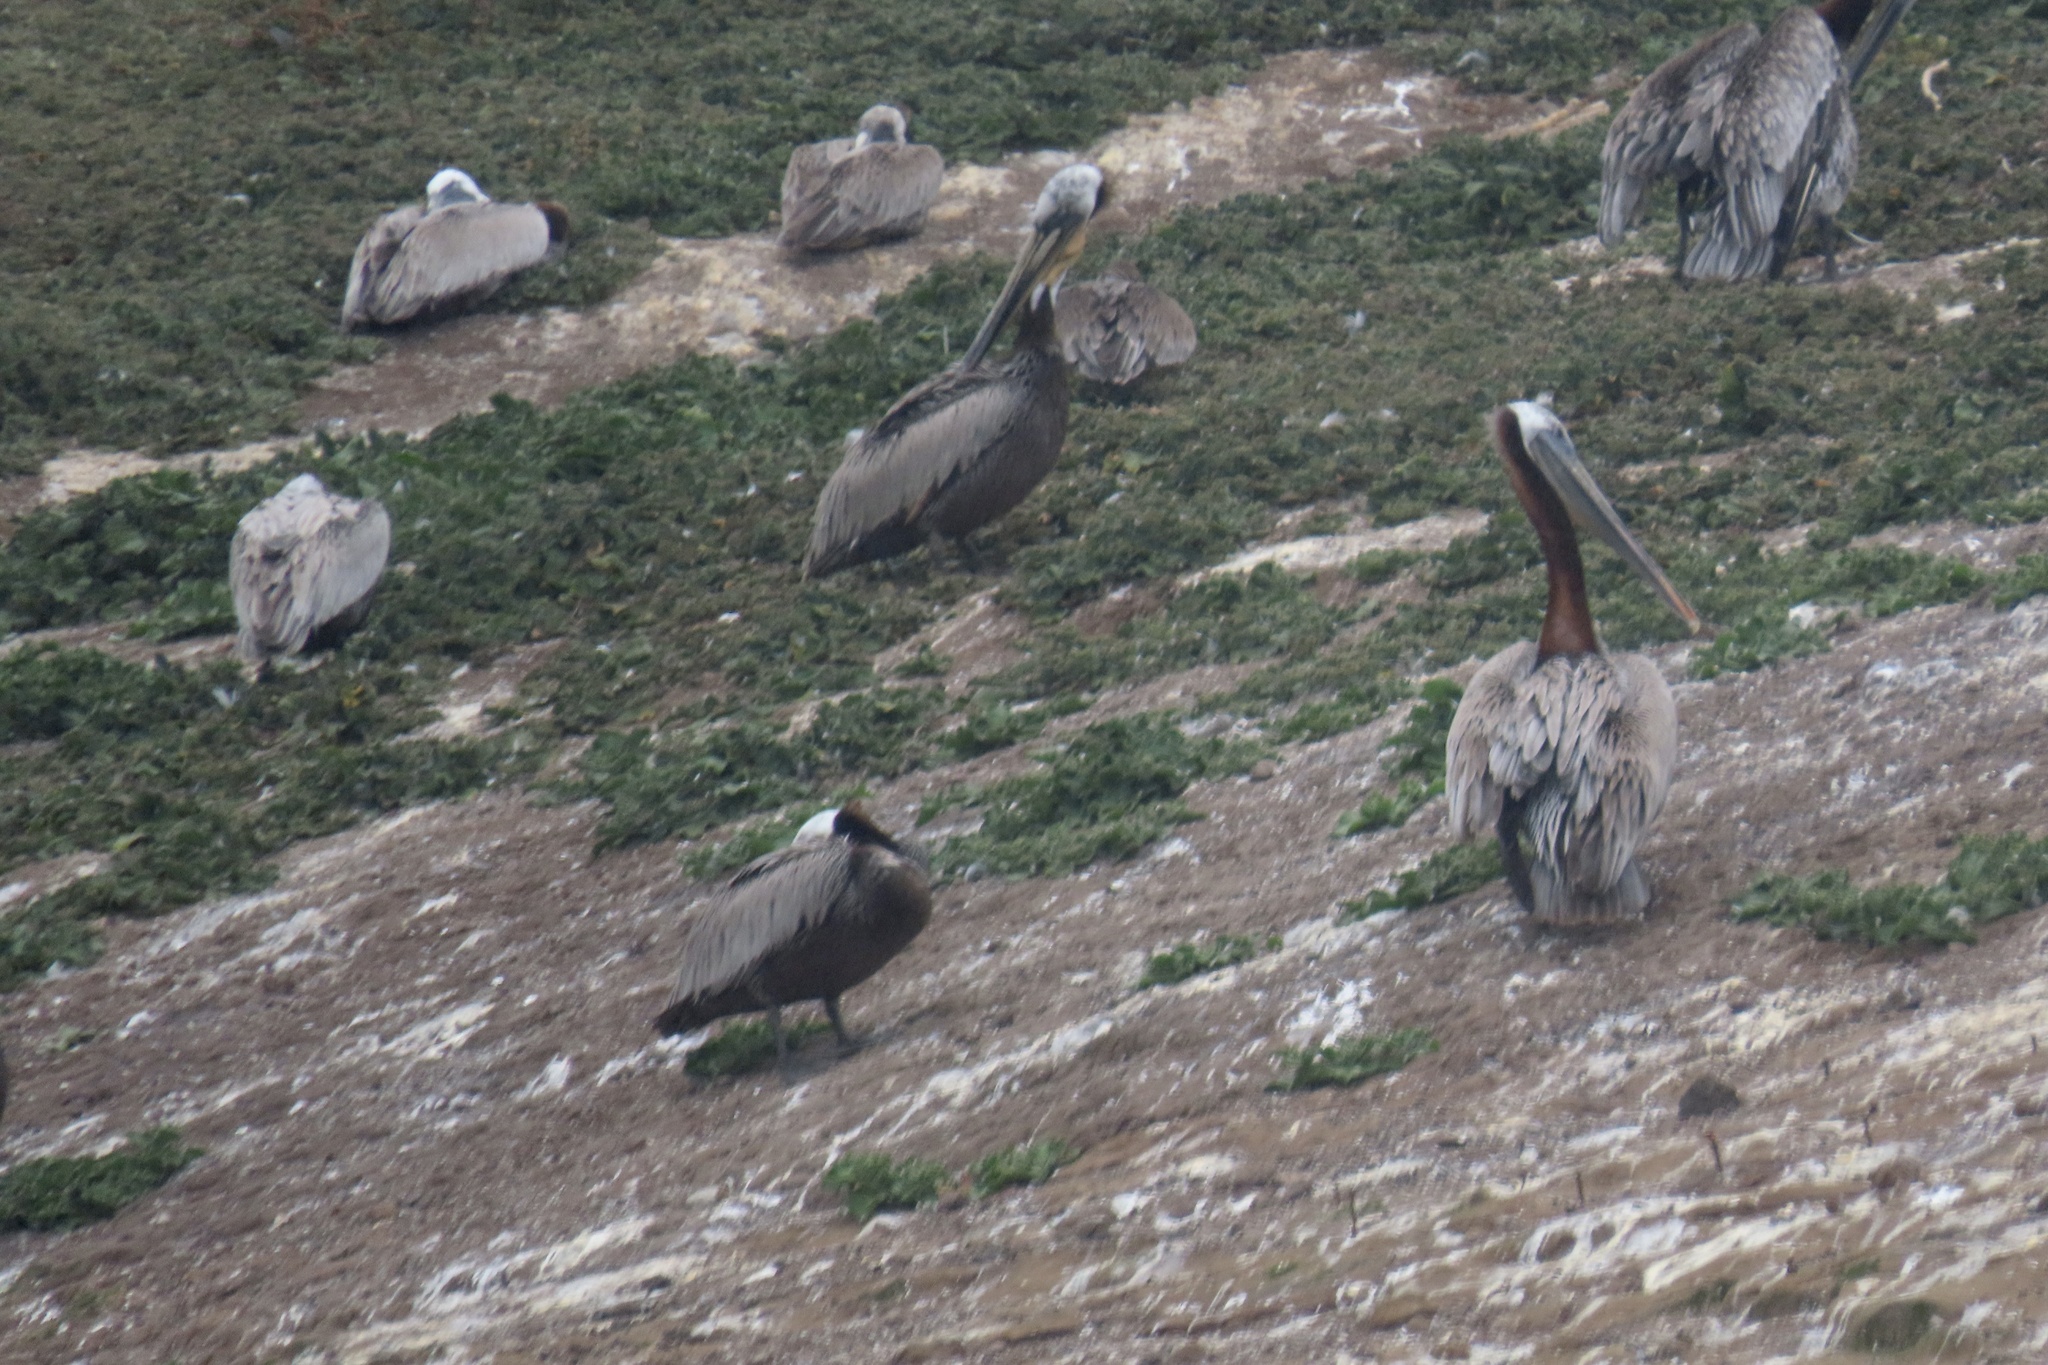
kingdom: Animalia
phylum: Chordata
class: Aves
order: Pelecaniformes
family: Pelecanidae
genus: Pelecanus
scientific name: Pelecanus occidentalis
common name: Brown pelican
